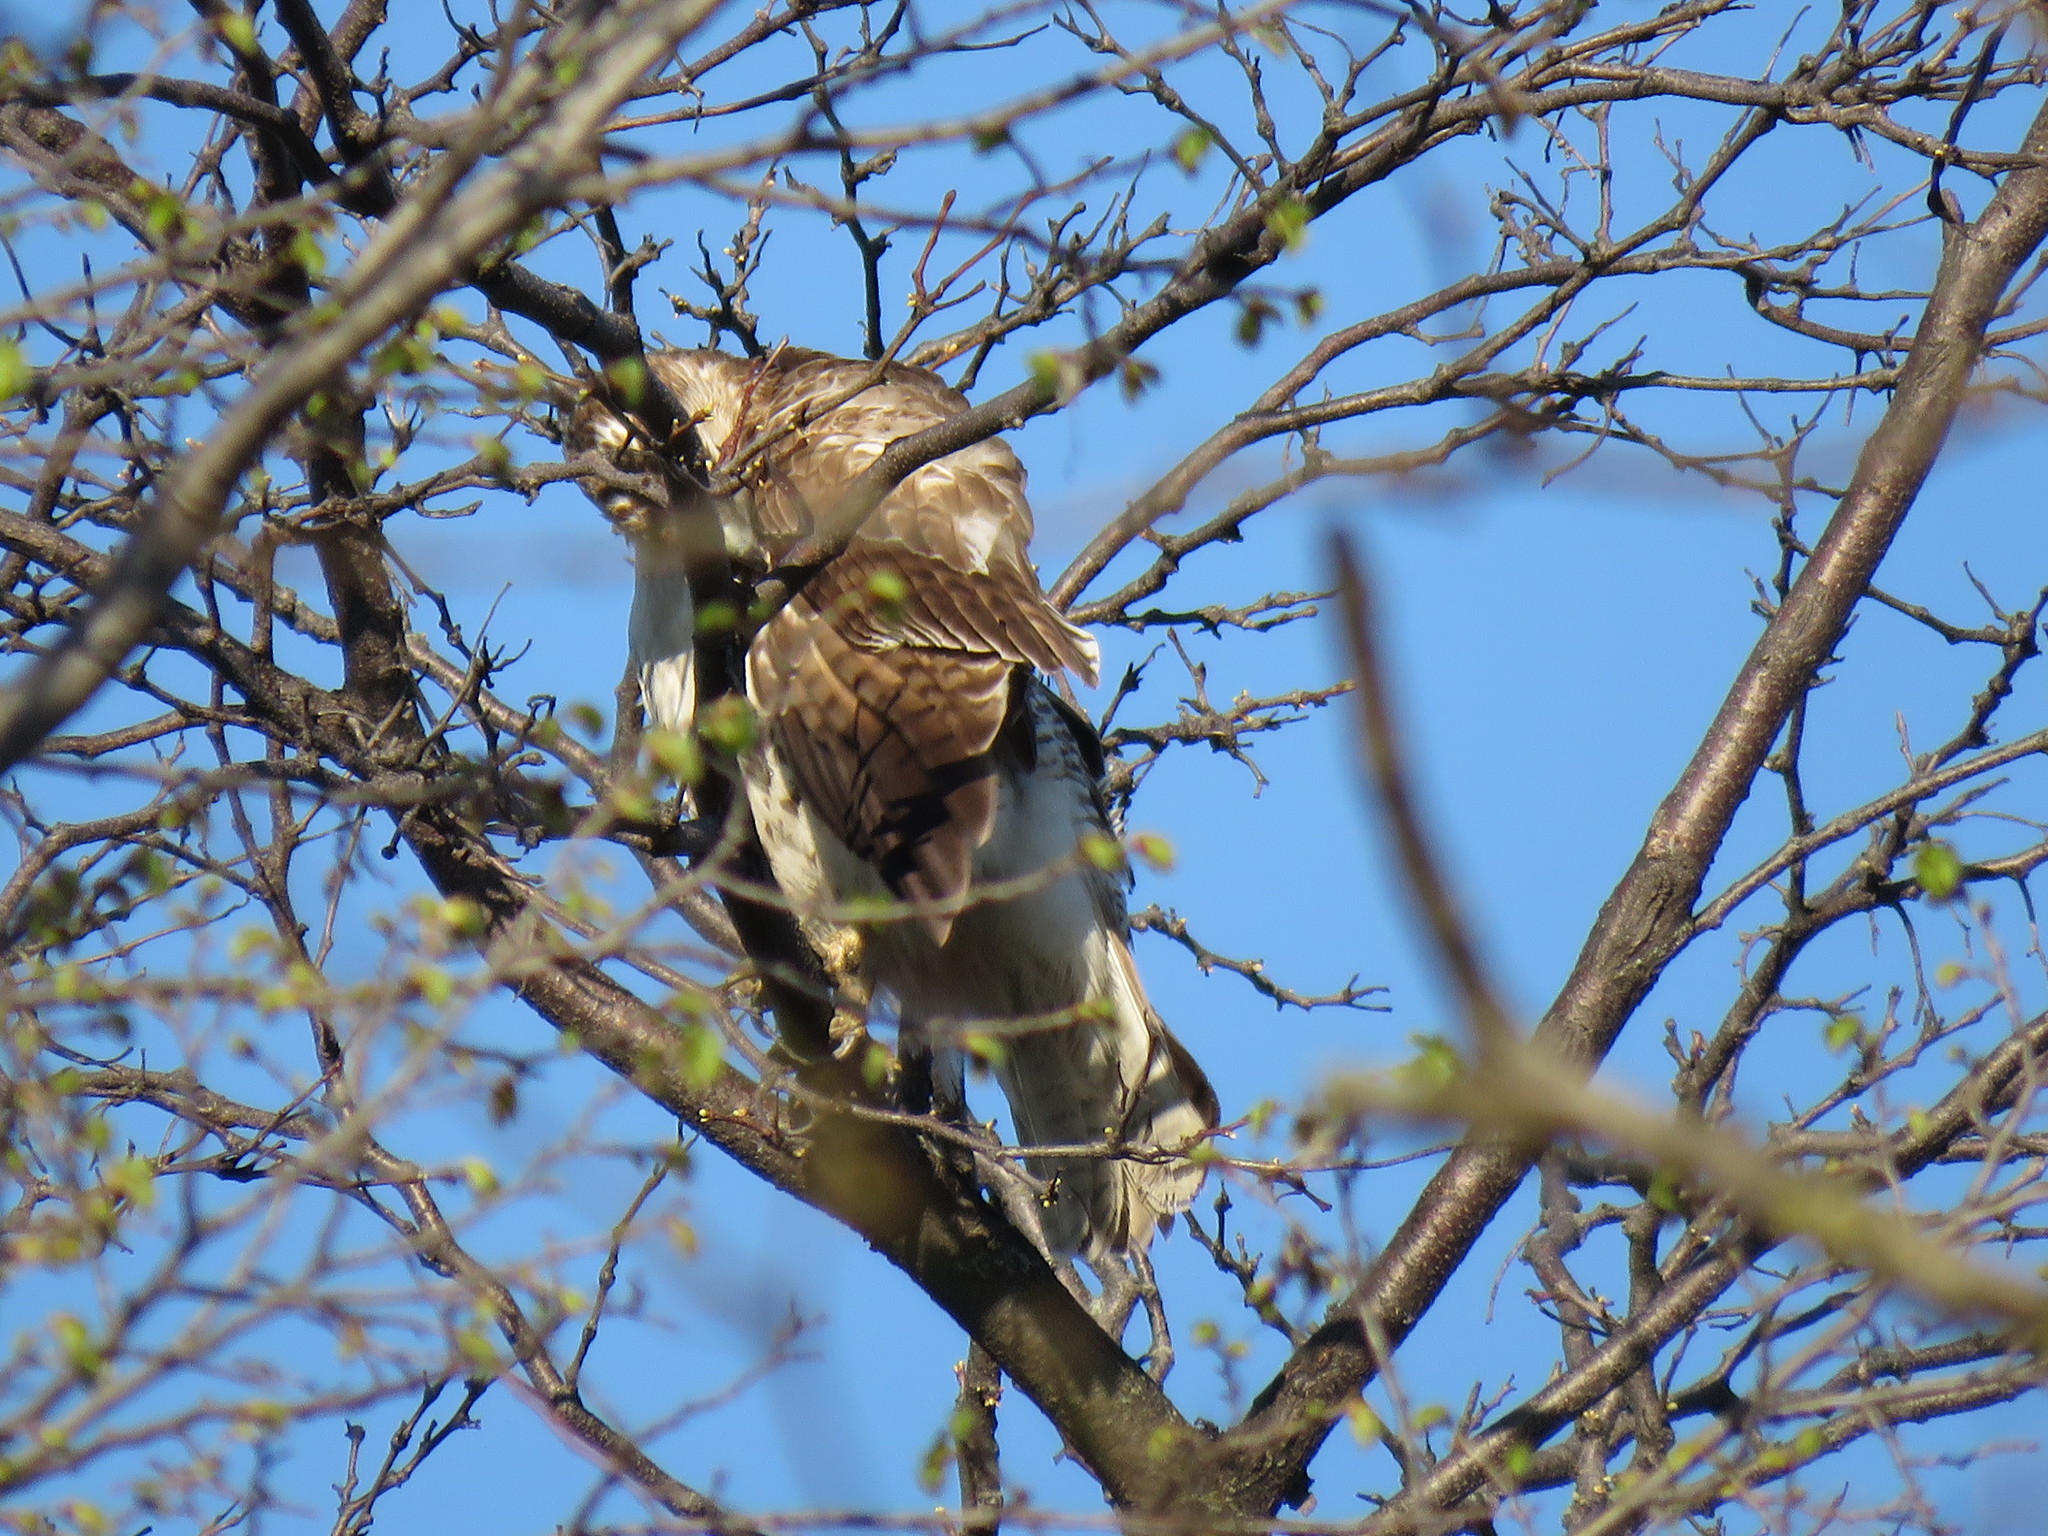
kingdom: Animalia
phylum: Chordata
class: Aves
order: Accipitriformes
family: Accipitridae
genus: Buteo
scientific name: Buteo jamaicensis
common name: Red-tailed hawk
